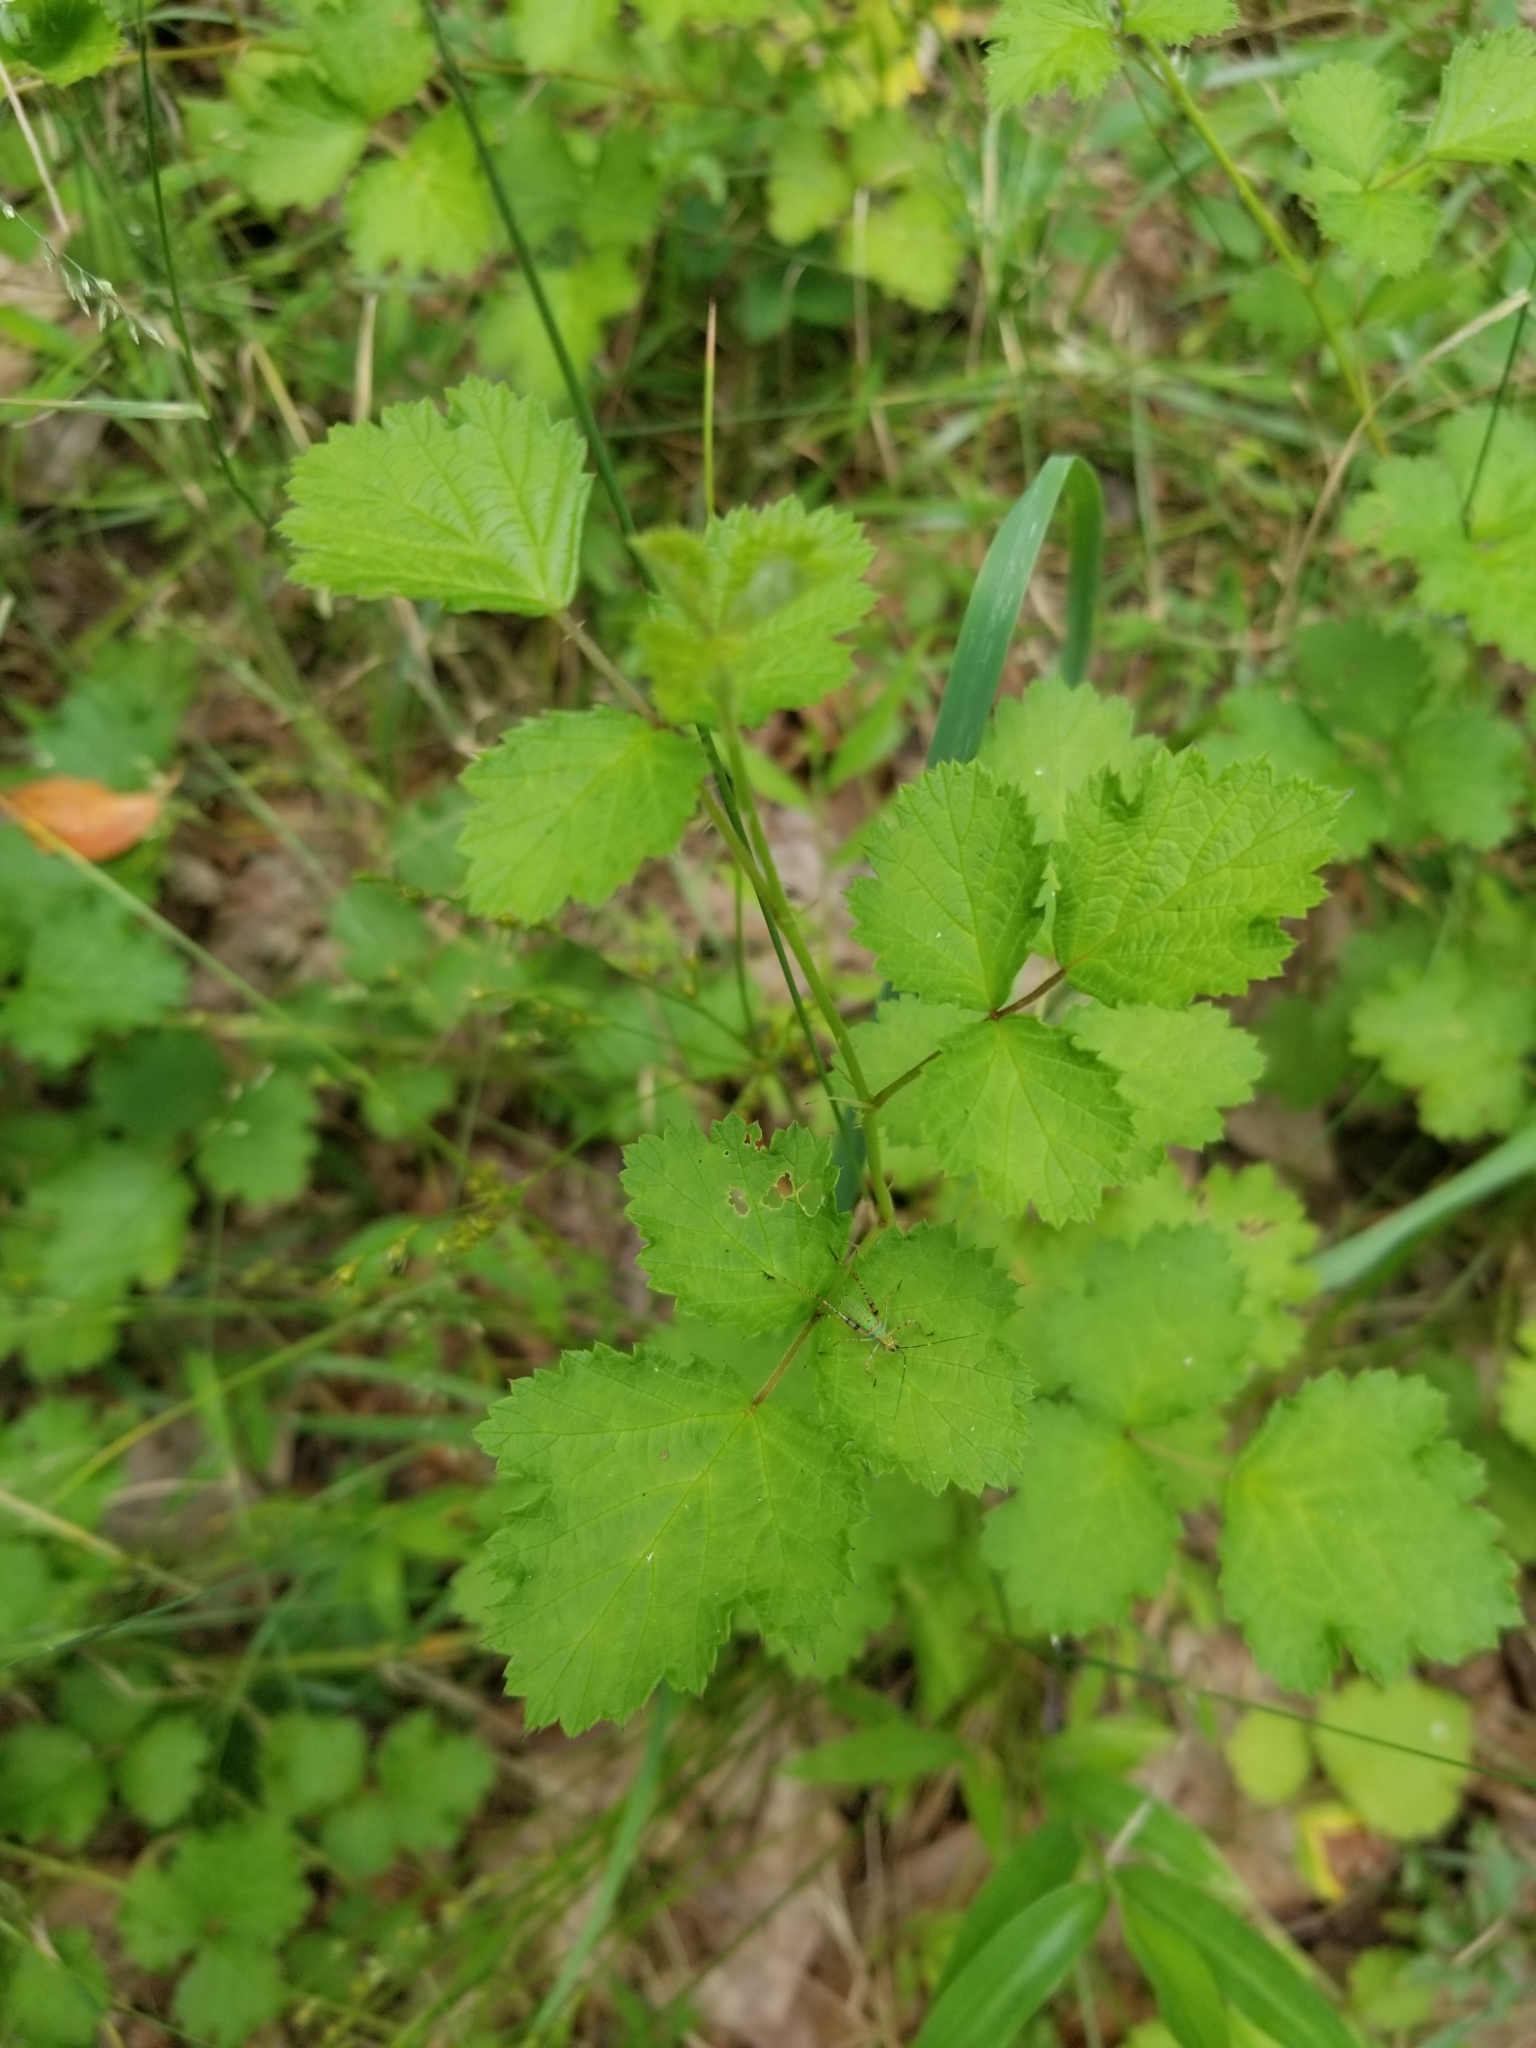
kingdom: Plantae
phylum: Tracheophyta
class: Magnoliopsida
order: Rosales
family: Rosaceae
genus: Rubus
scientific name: Rubus parvifolius
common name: Threeleaf blackberry
